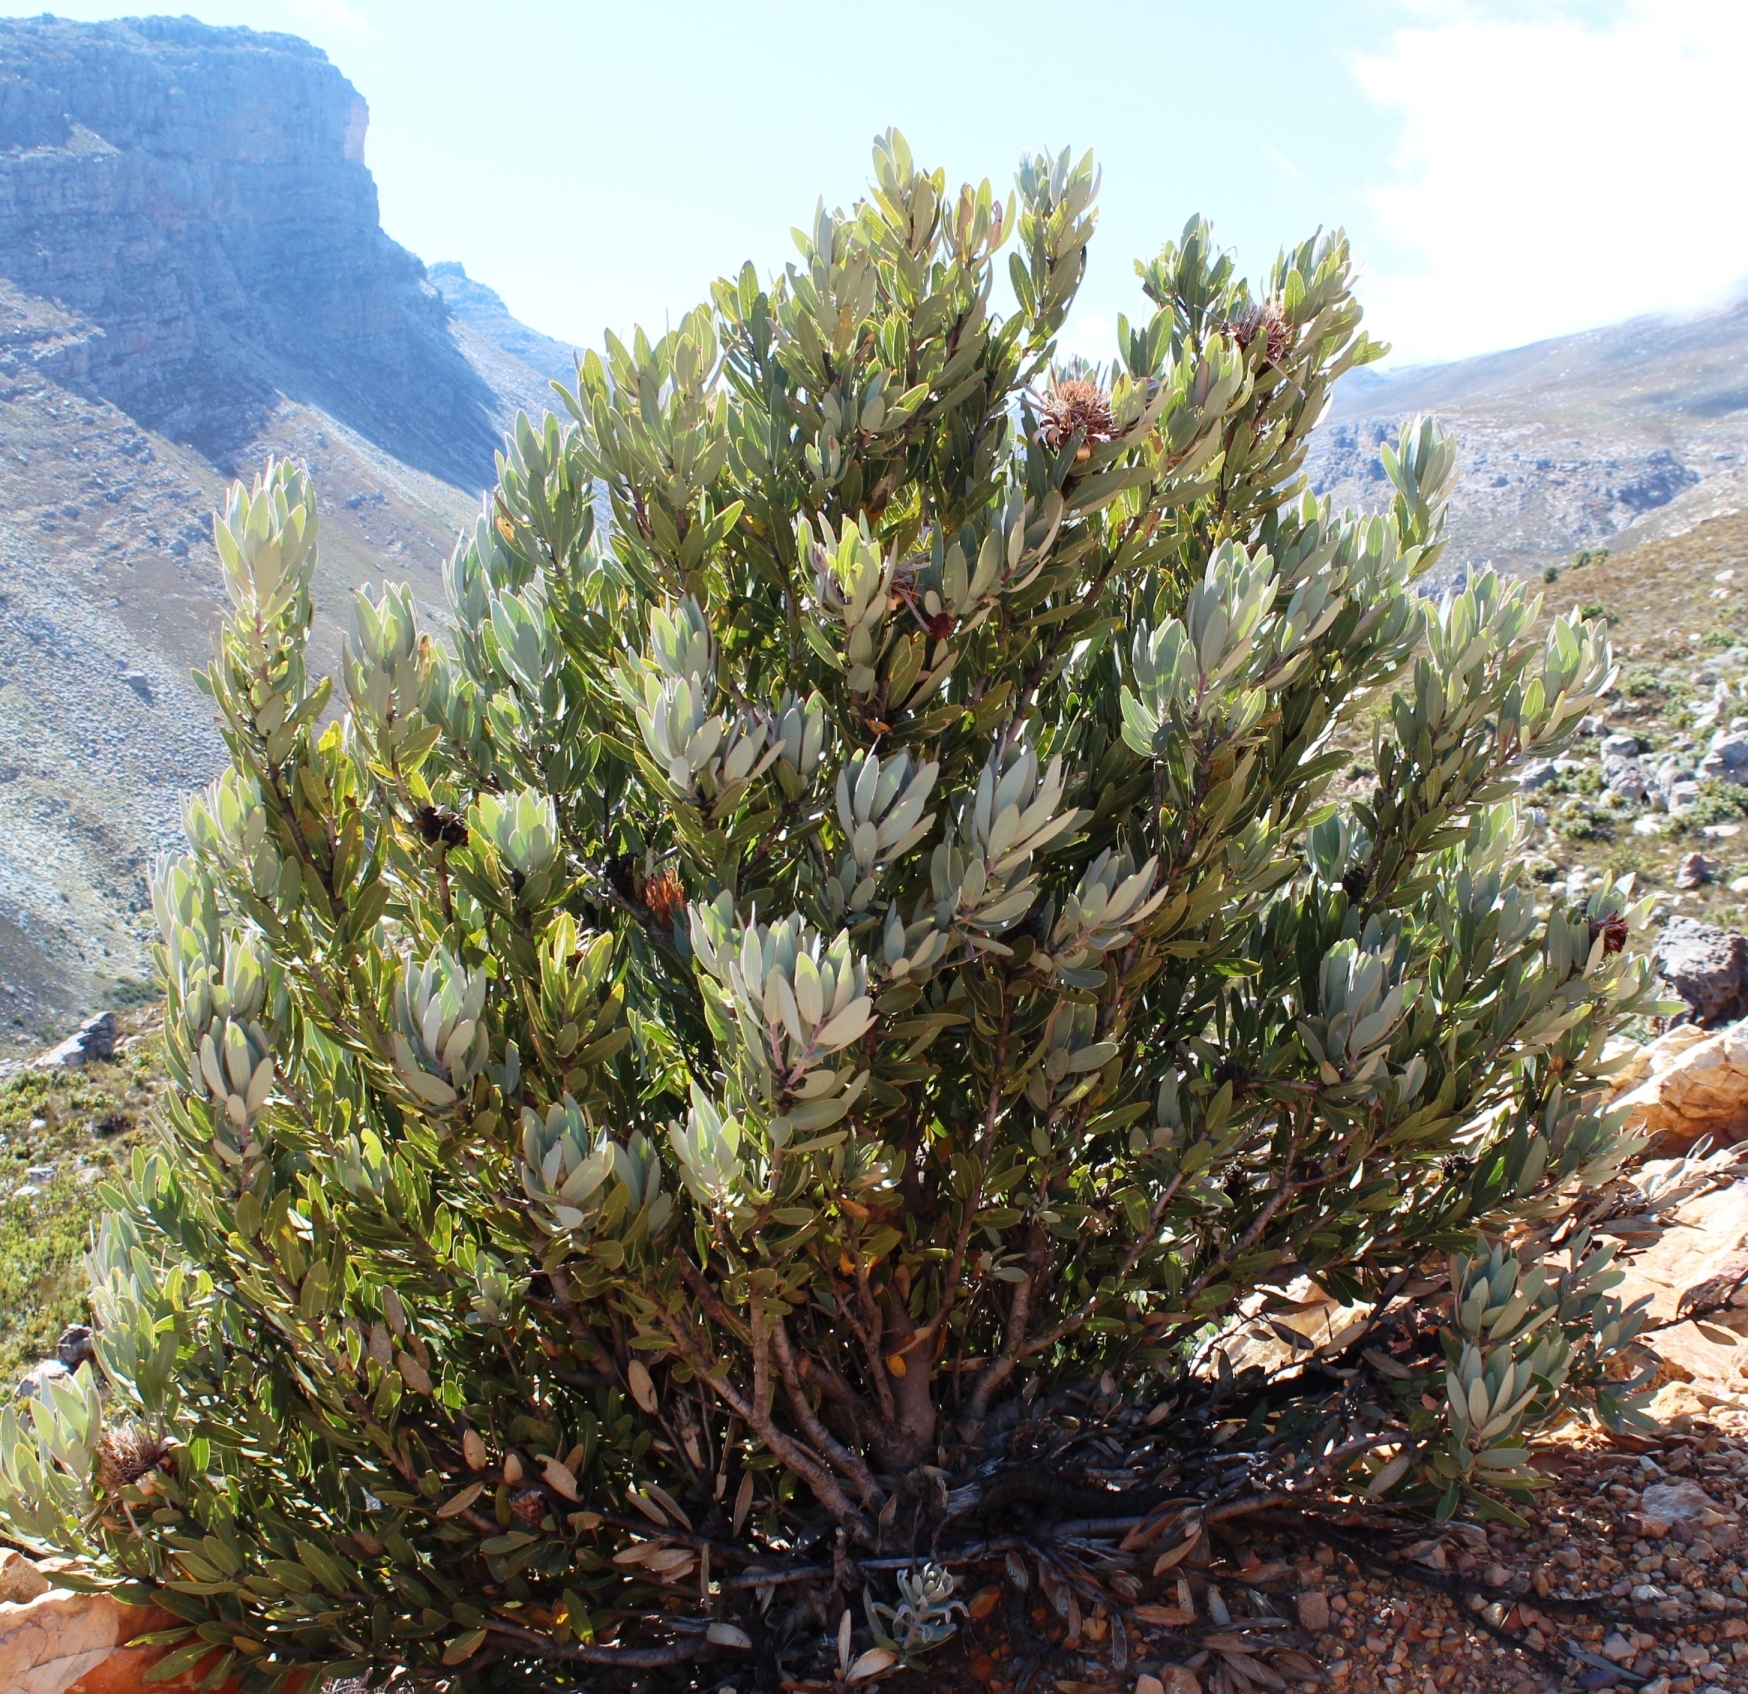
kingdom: Plantae
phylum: Tracheophyta
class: Magnoliopsida
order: Proteales
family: Proteaceae
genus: Protea
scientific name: Protea laurifolia
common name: Grey-leaf sugarbsh
